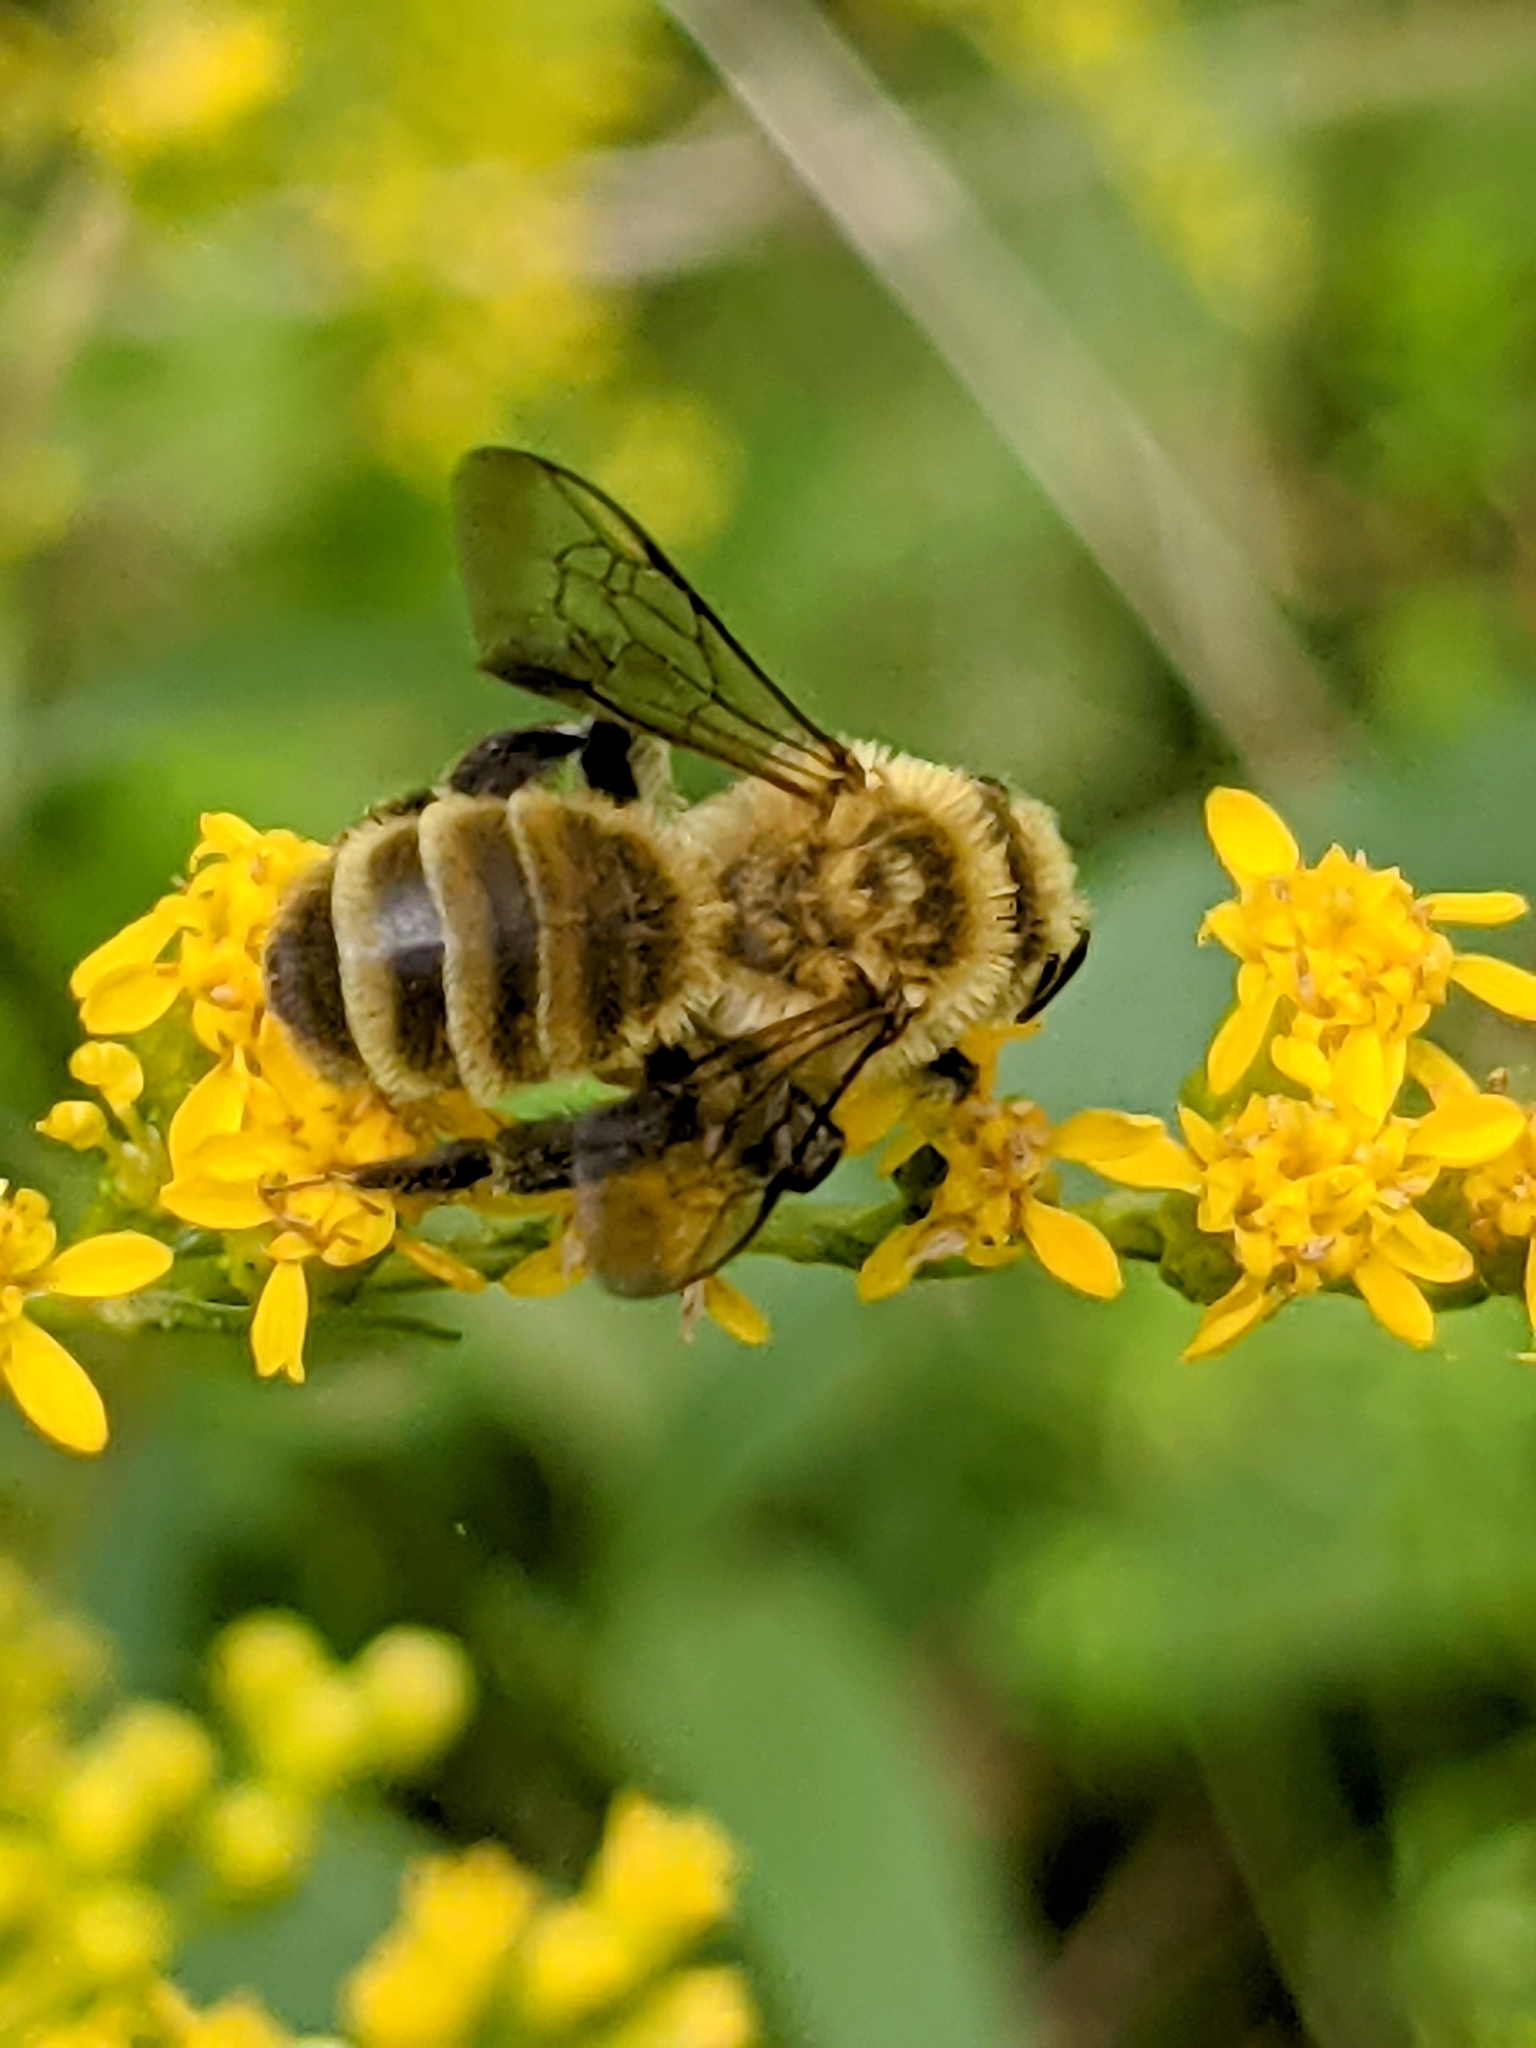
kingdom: Animalia
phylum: Arthropoda
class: Insecta
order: Hymenoptera
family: Andrenidae
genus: Andrena
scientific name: Andrena hirticincta
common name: Hairy-banded mining bee
